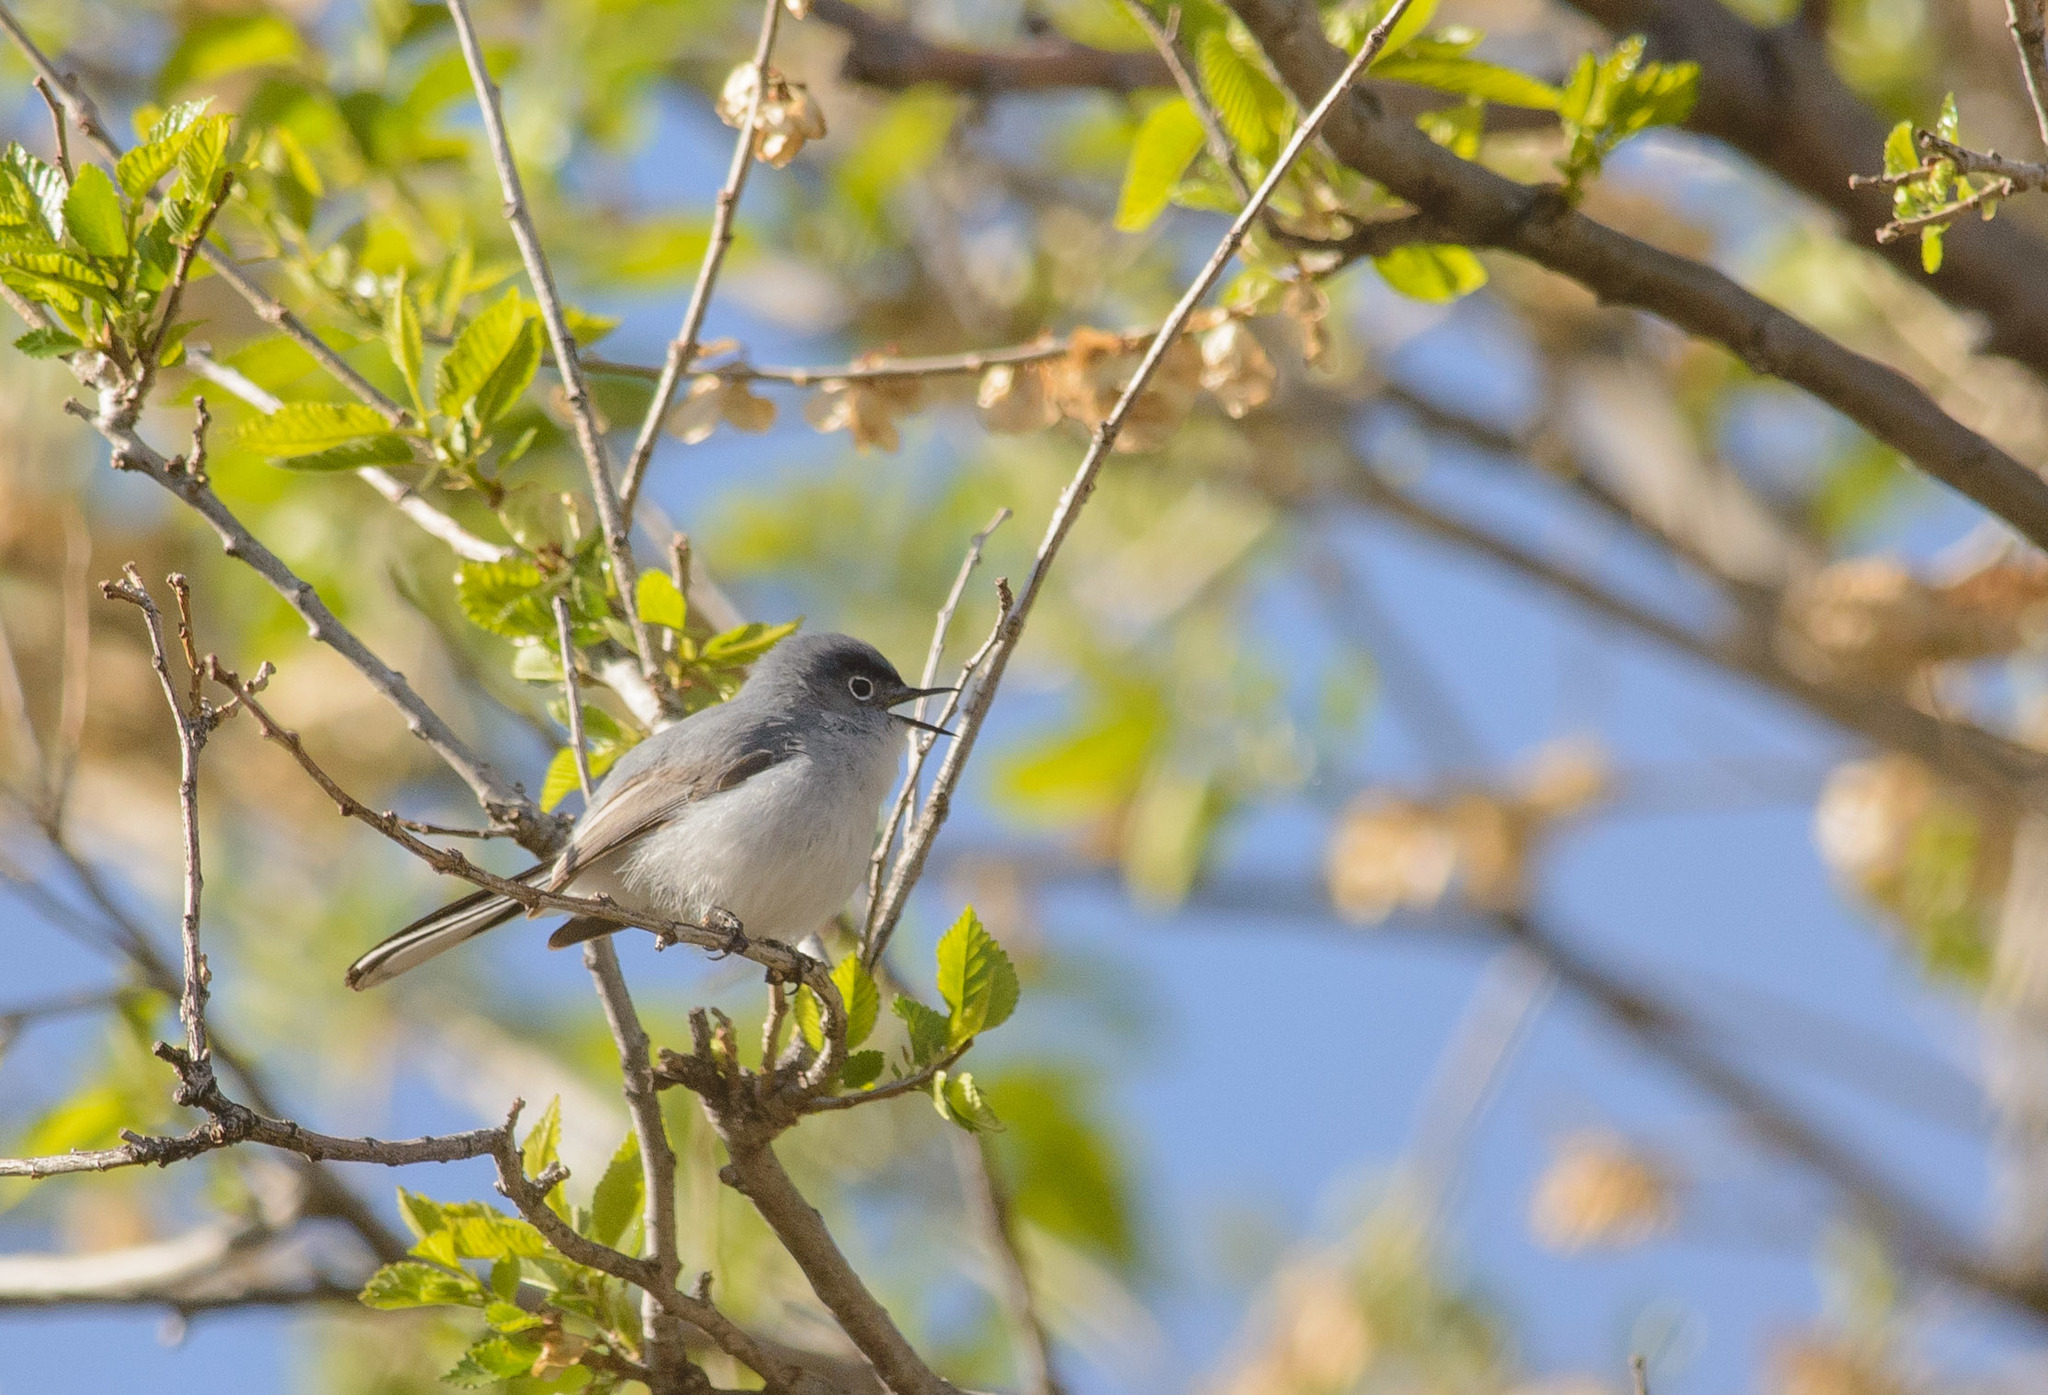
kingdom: Animalia
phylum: Chordata
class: Aves
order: Passeriformes
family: Polioptilidae
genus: Polioptila
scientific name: Polioptila caerulea
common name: Blue-gray gnatcatcher
